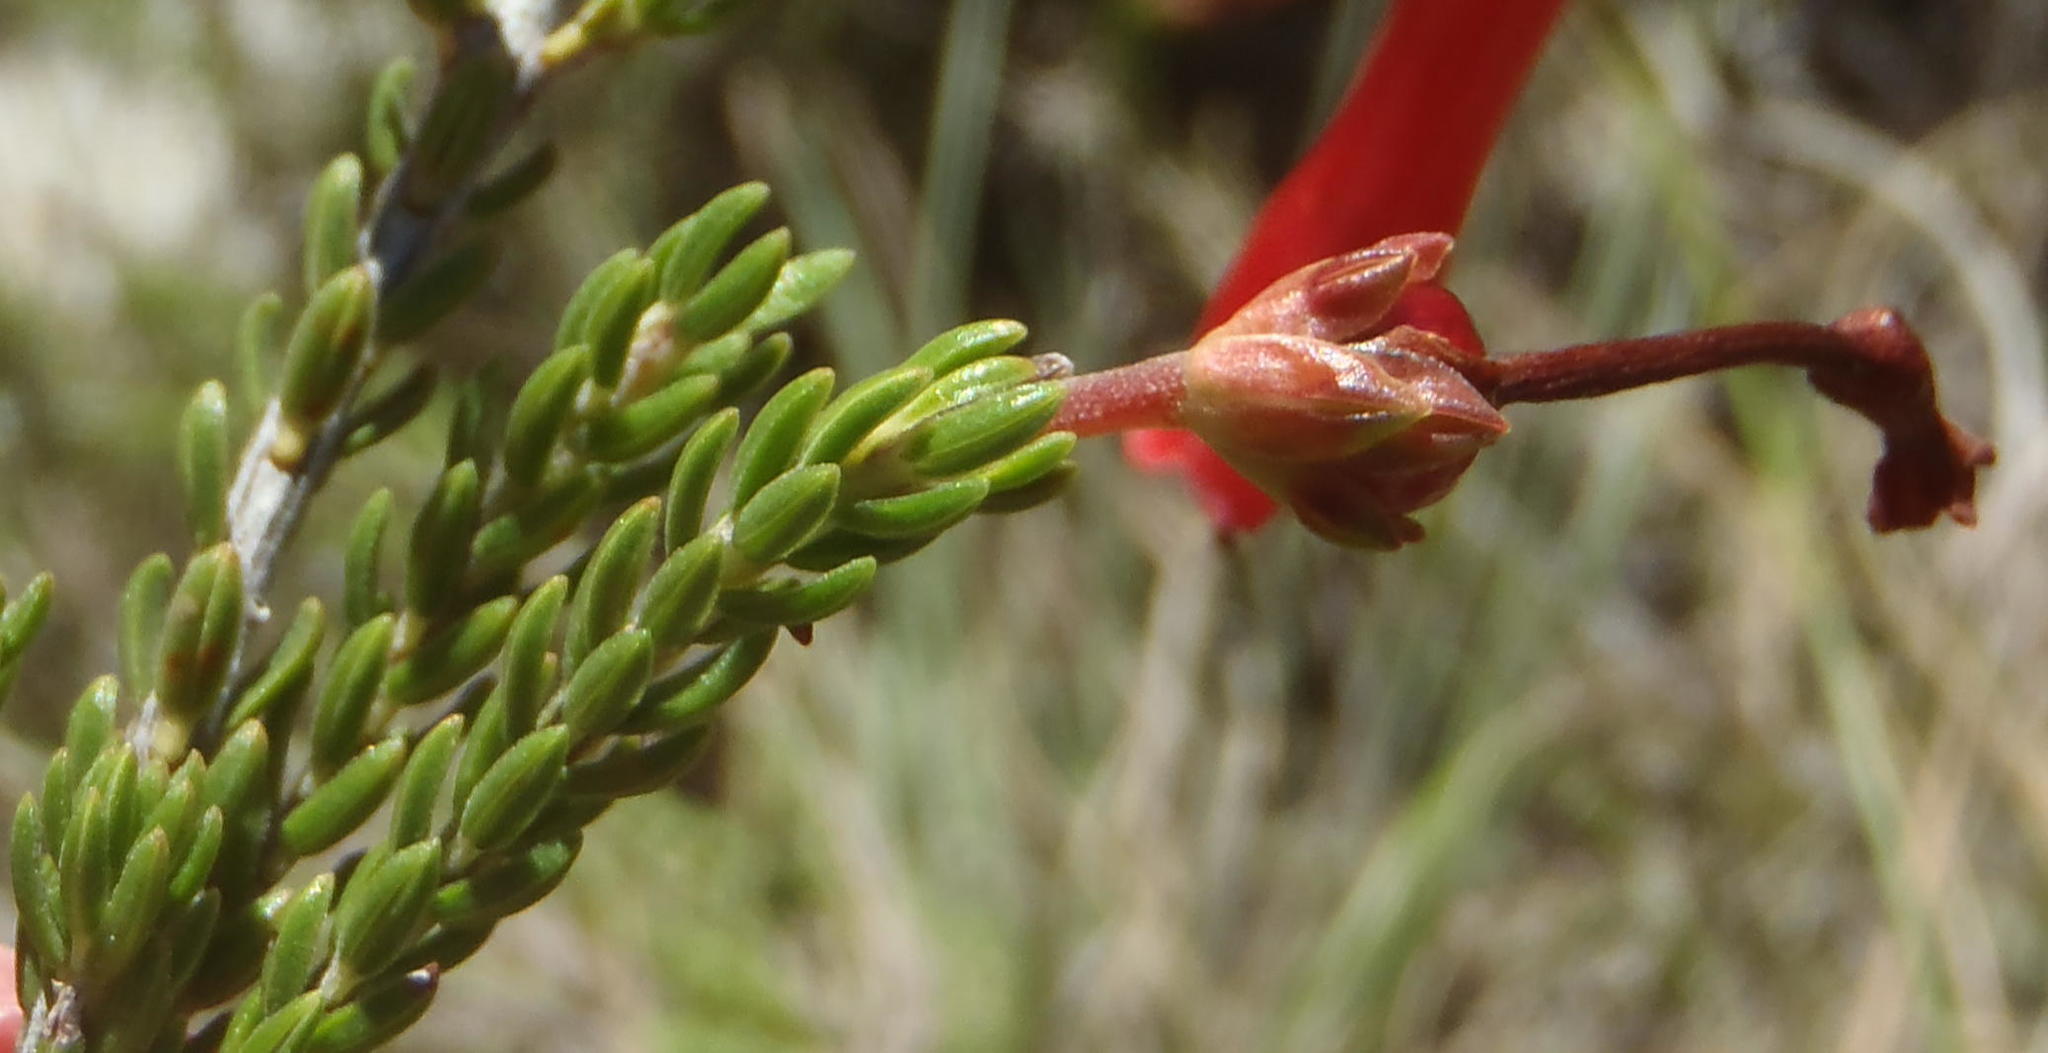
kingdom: Plantae
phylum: Tracheophyta
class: Magnoliopsida
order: Ericales
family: Ericaceae
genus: Erica
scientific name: Erica diaphana
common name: Heath
